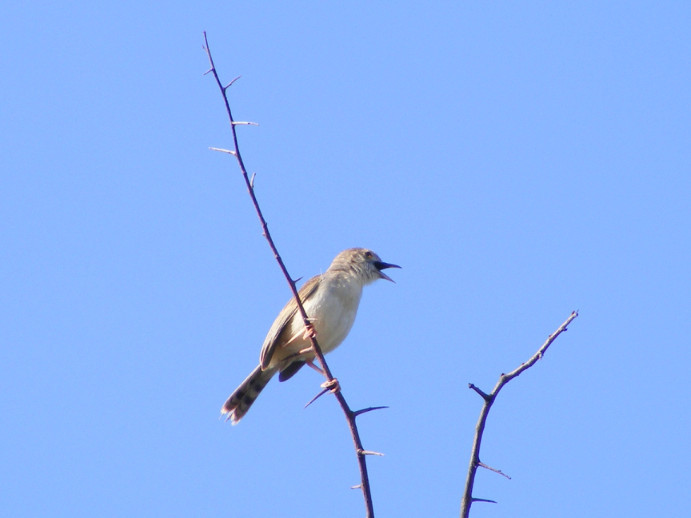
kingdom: Animalia
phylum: Chordata
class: Aves
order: Passeriformes
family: Cisticolidae
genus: Cisticola
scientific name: Cisticola chiniana
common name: Rattling cisticola
